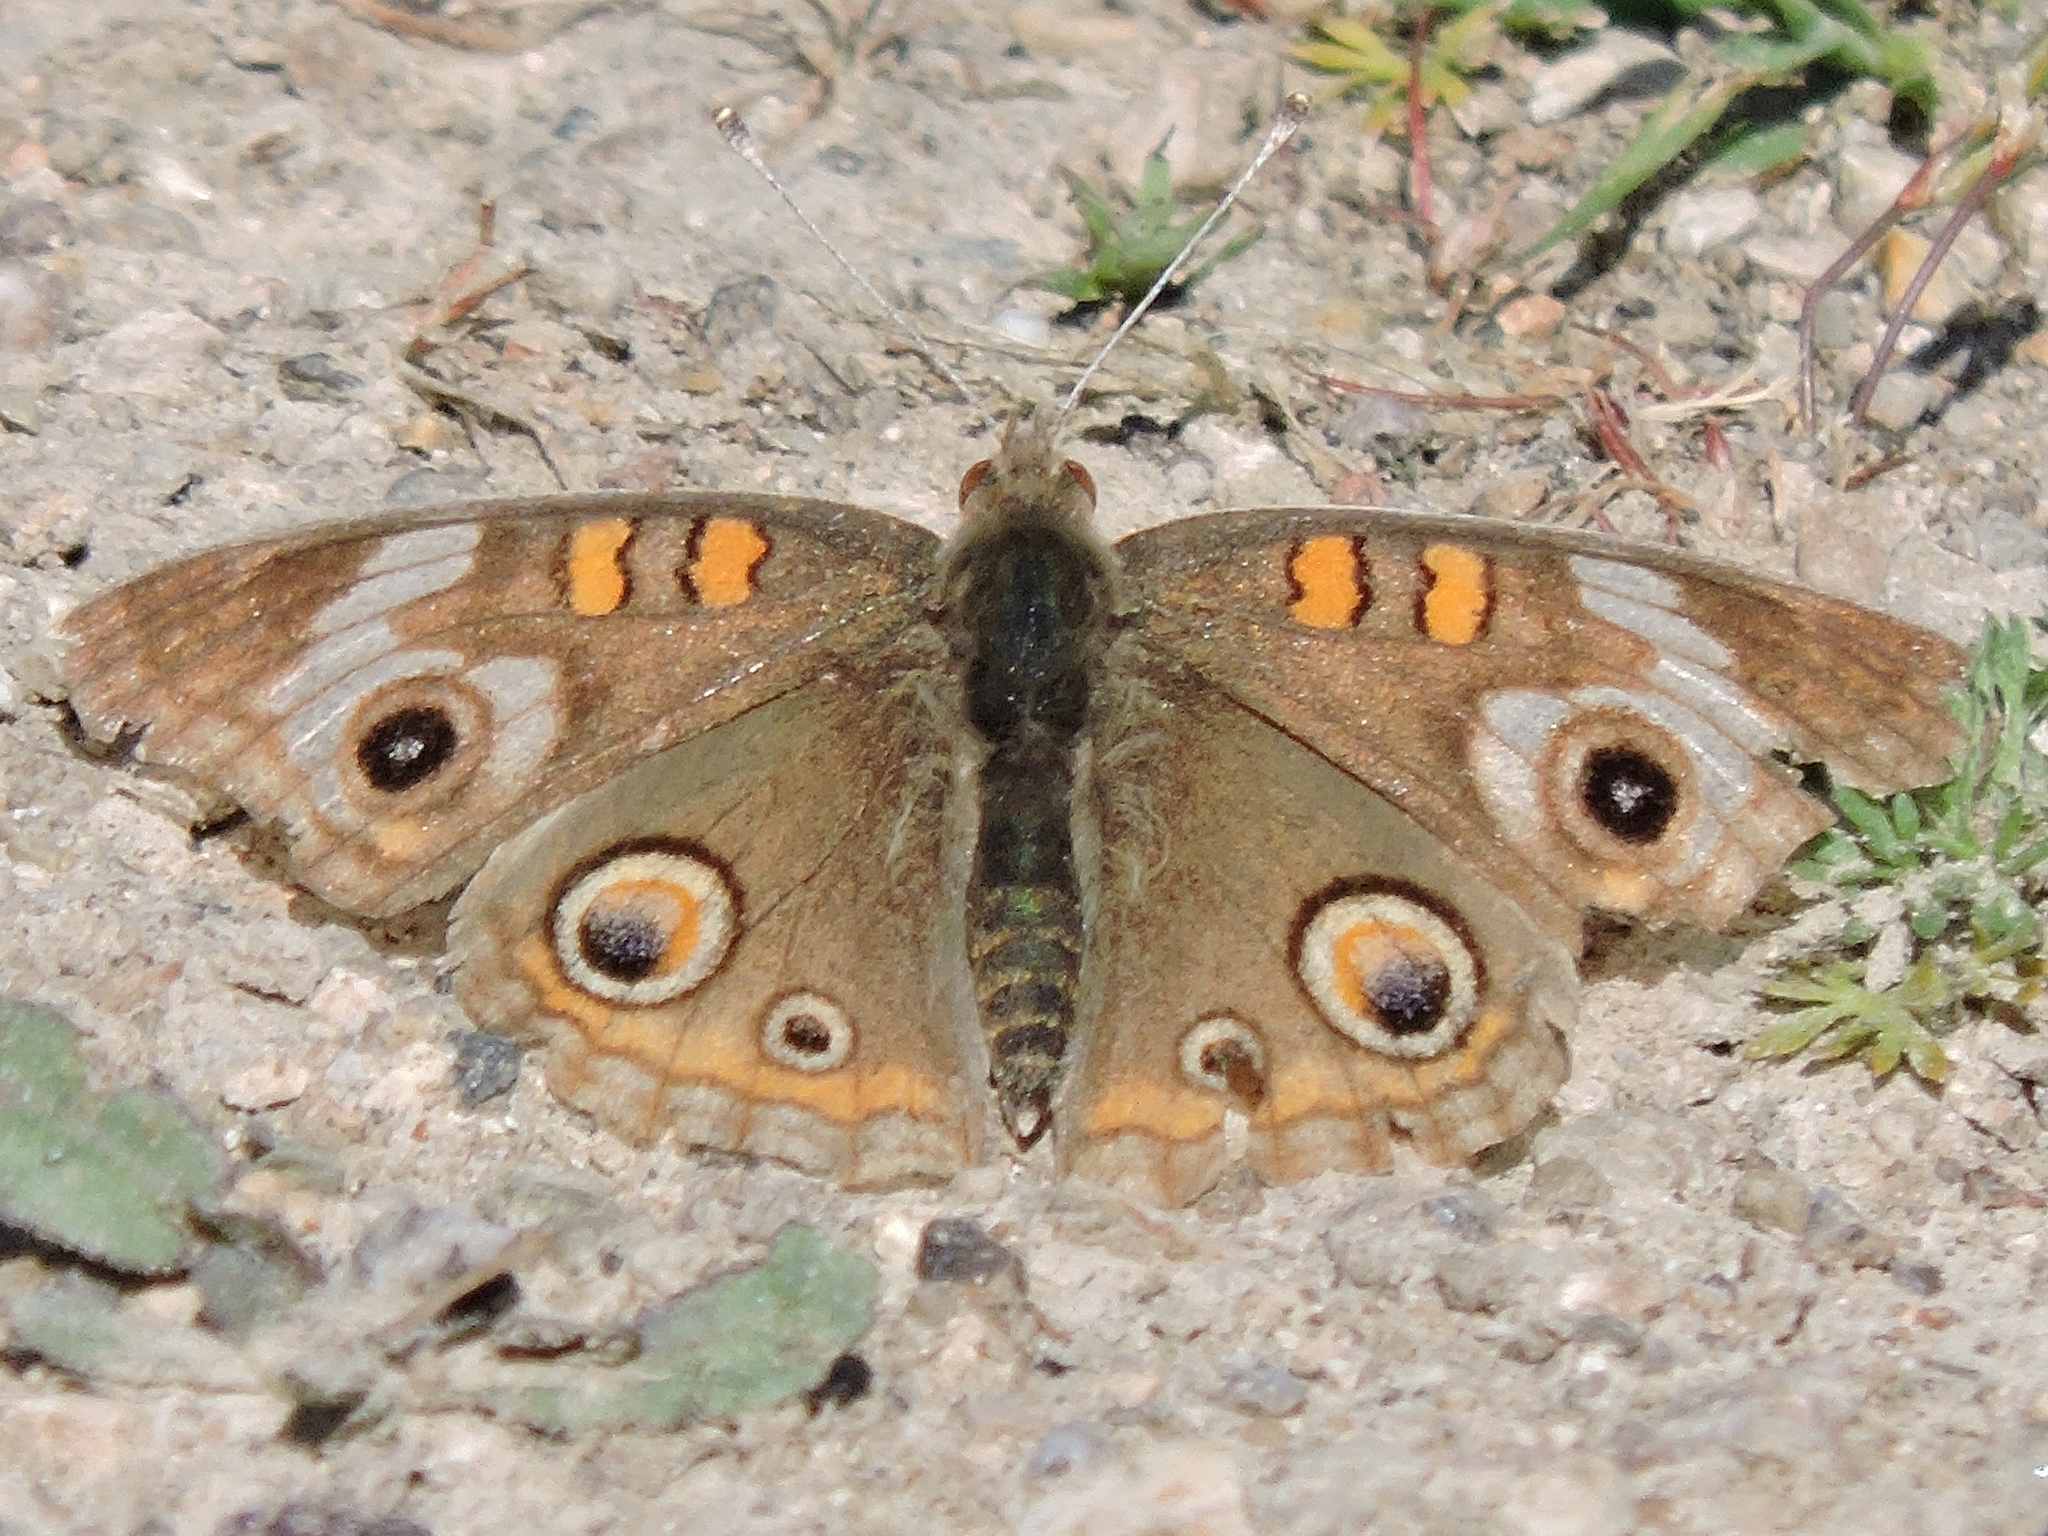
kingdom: Animalia
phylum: Arthropoda
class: Insecta
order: Lepidoptera
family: Nymphalidae
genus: Junonia
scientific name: Junonia grisea
